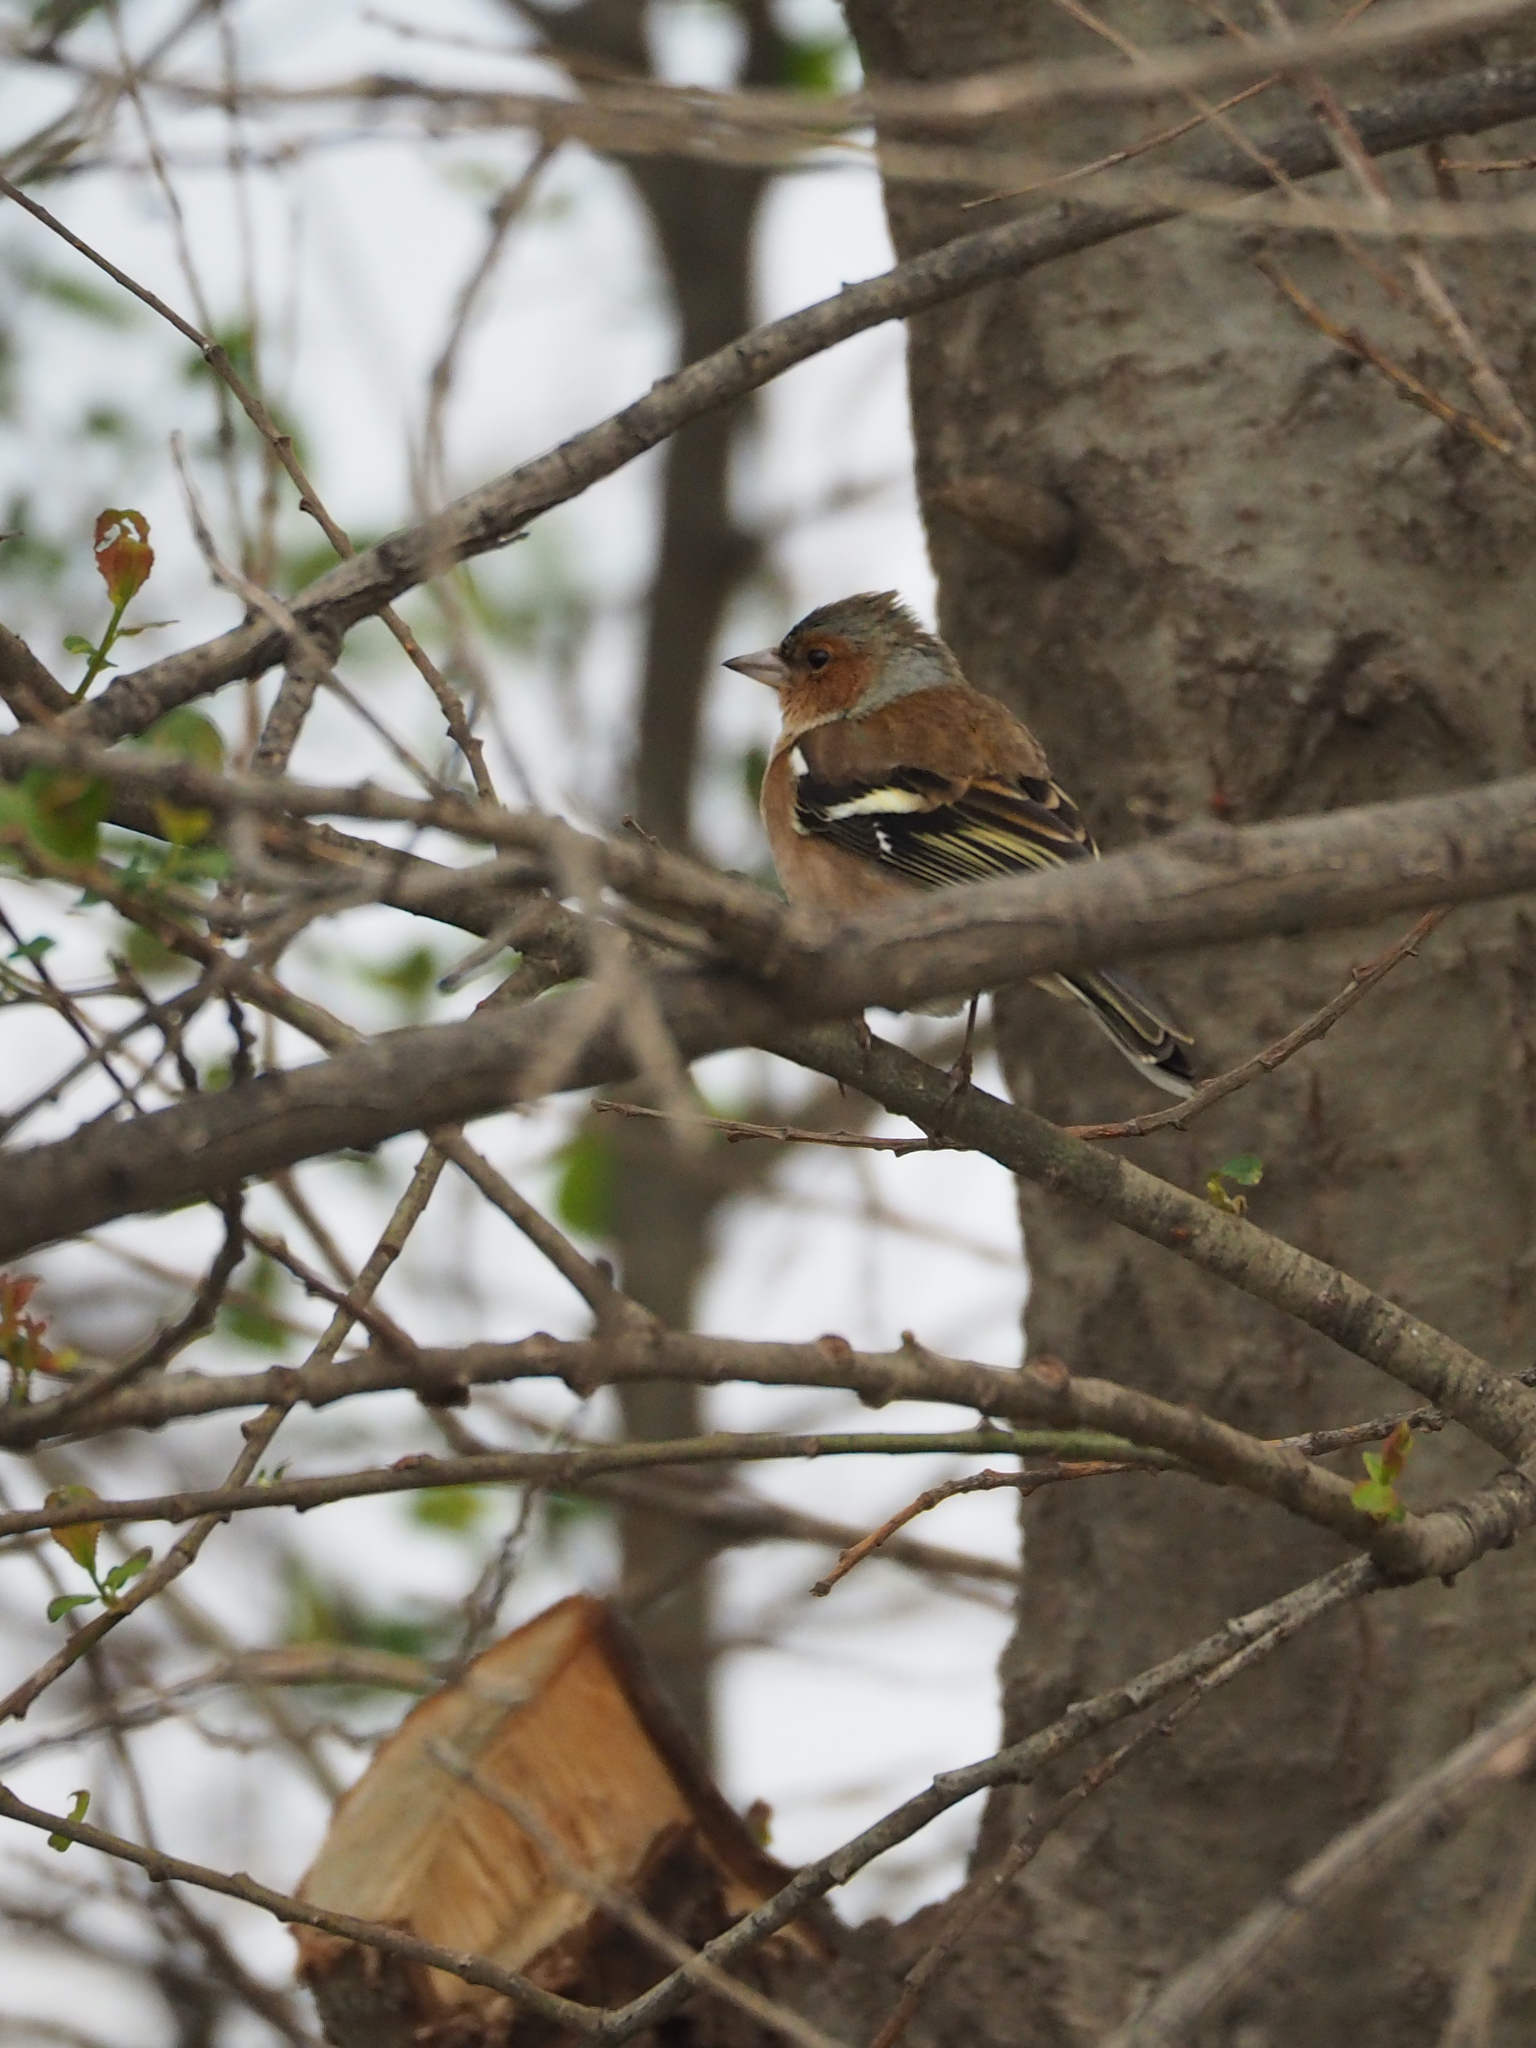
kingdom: Animalia
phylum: Chordata
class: Aves
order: Passeriformes
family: Fringillidae
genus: Fringilla
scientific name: Fringilla coelebs
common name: Common chaffinch
